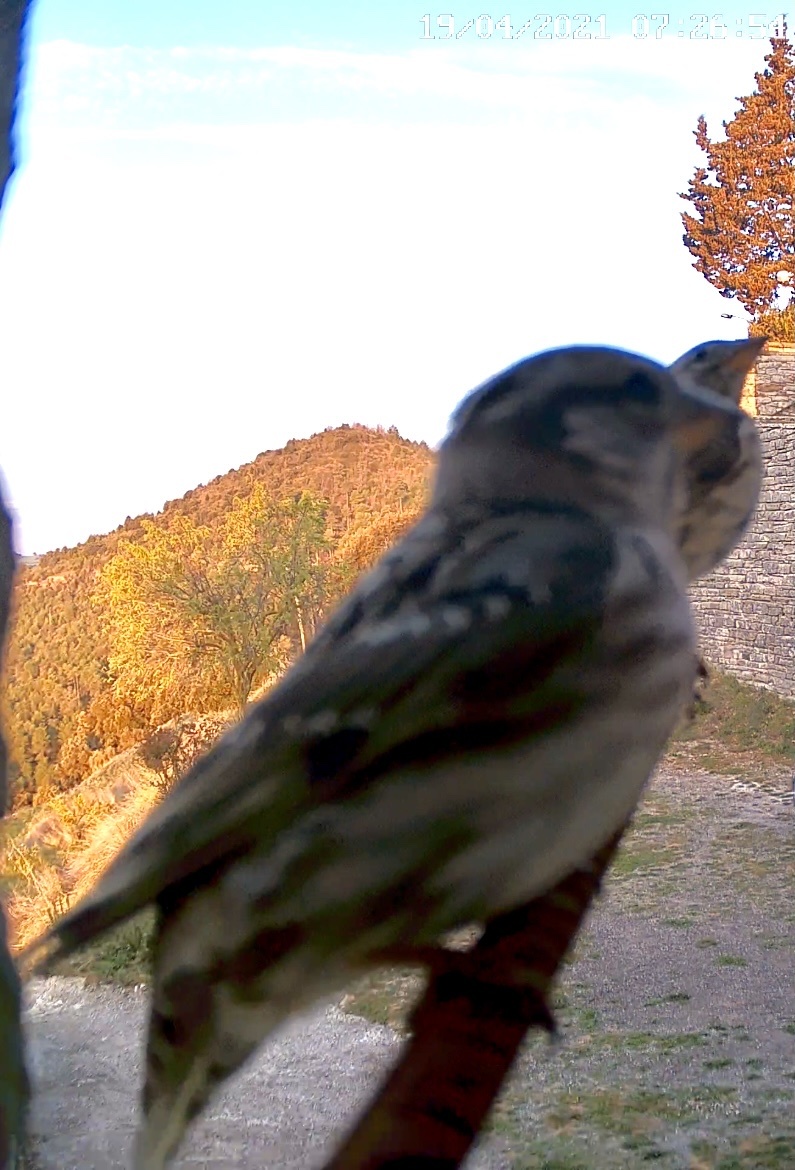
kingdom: Animalia
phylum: Chordata
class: Aves
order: Passeriformes
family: Passeridae
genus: Petronia
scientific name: Petronia petronia
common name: Rock sparrow
